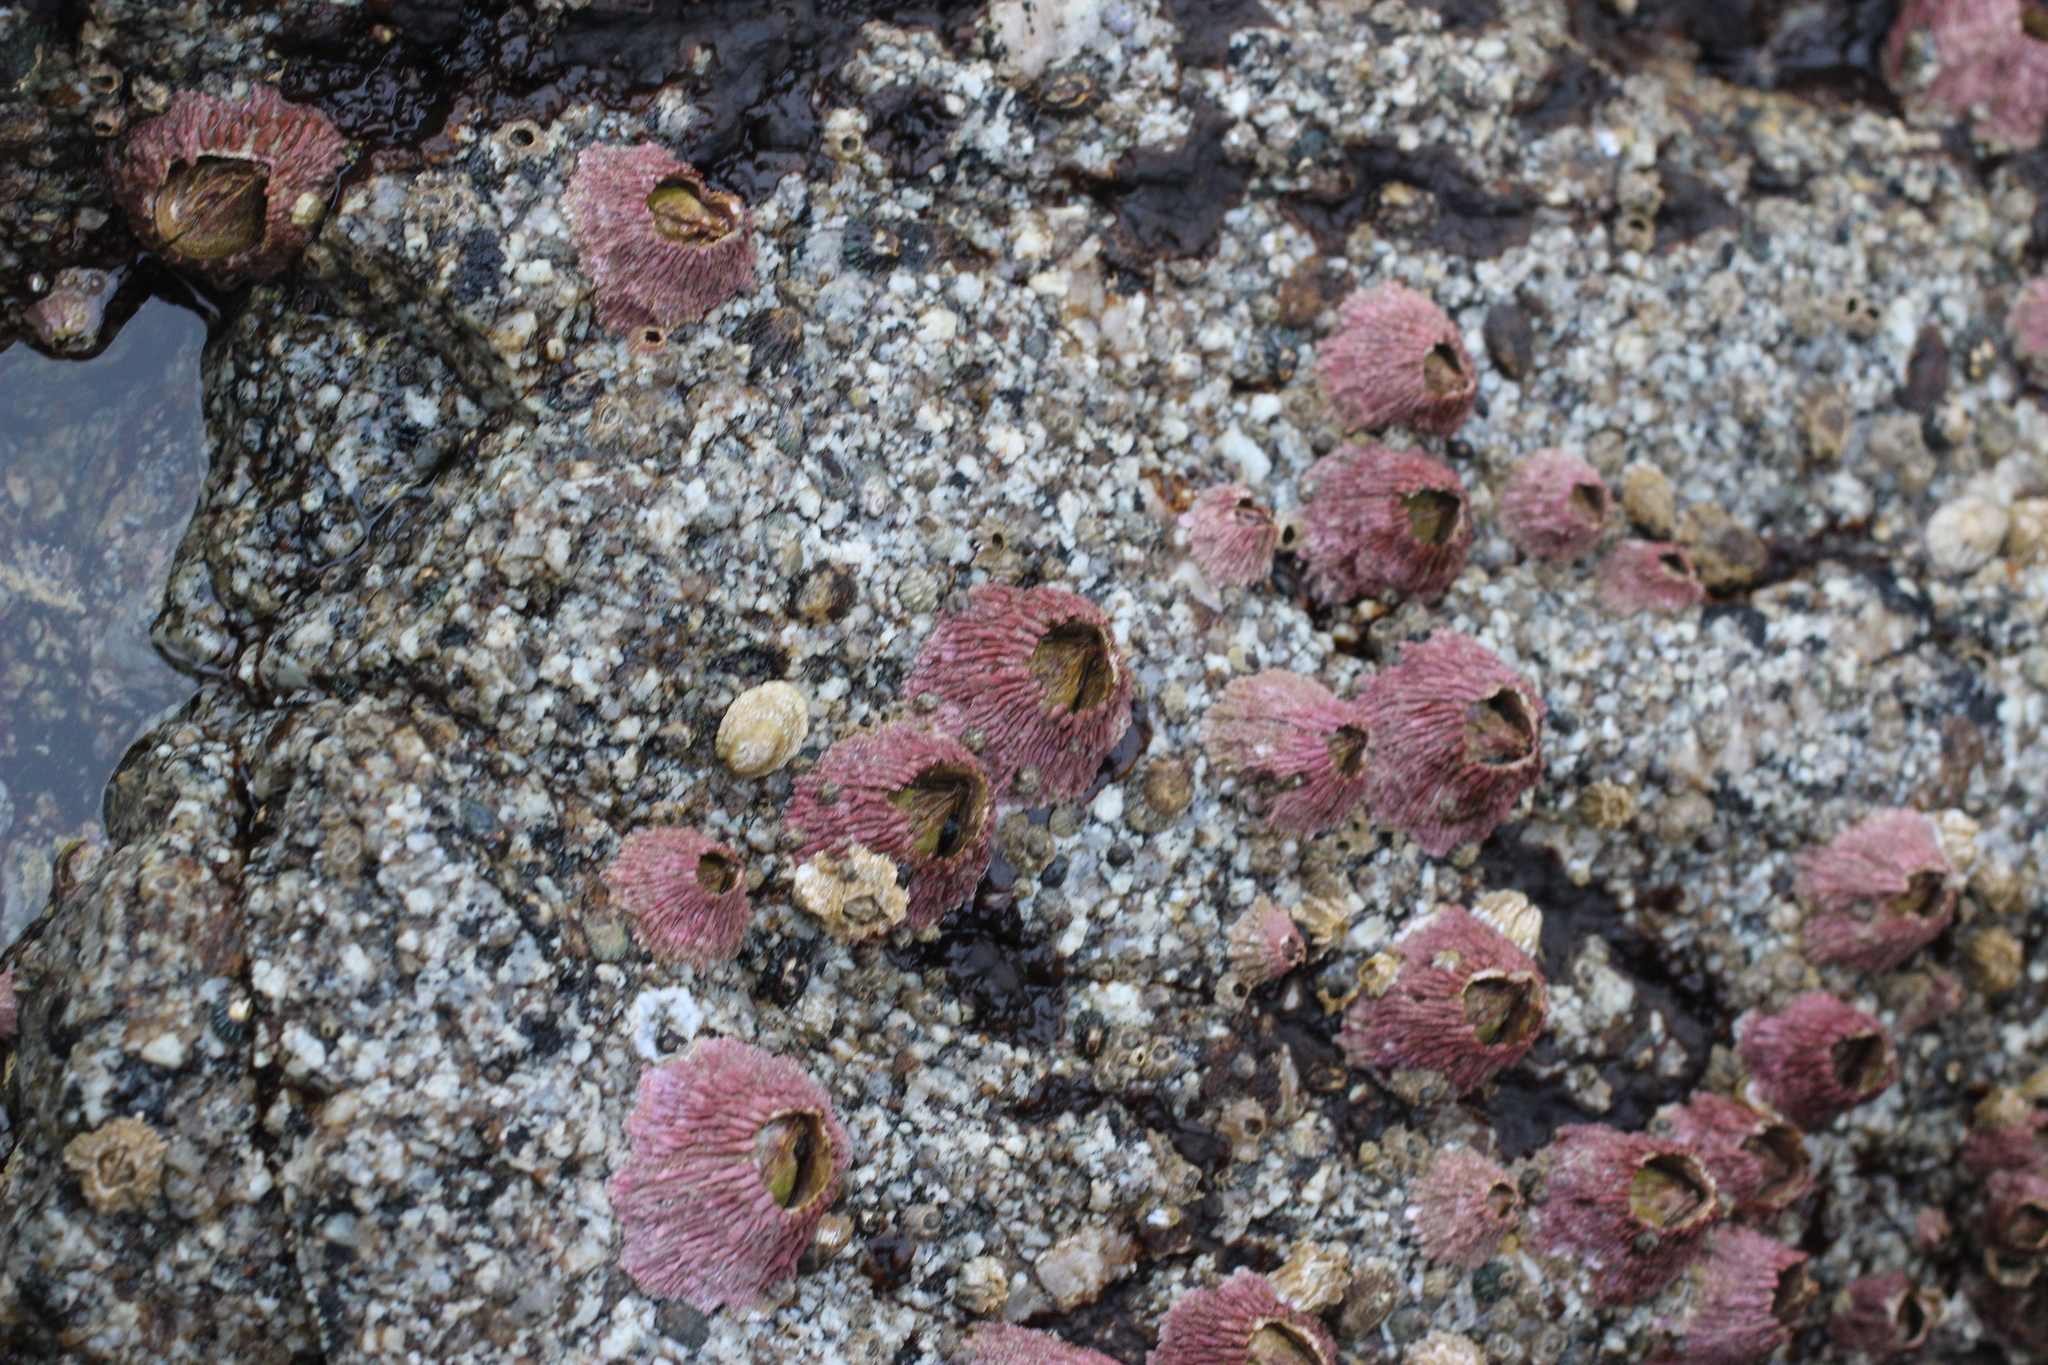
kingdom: Animalia
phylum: Arthropoda
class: Maxillopoda
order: Sessilia
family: Tetraclitidae
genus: Tetraclita
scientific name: Tetraclita rubescens
